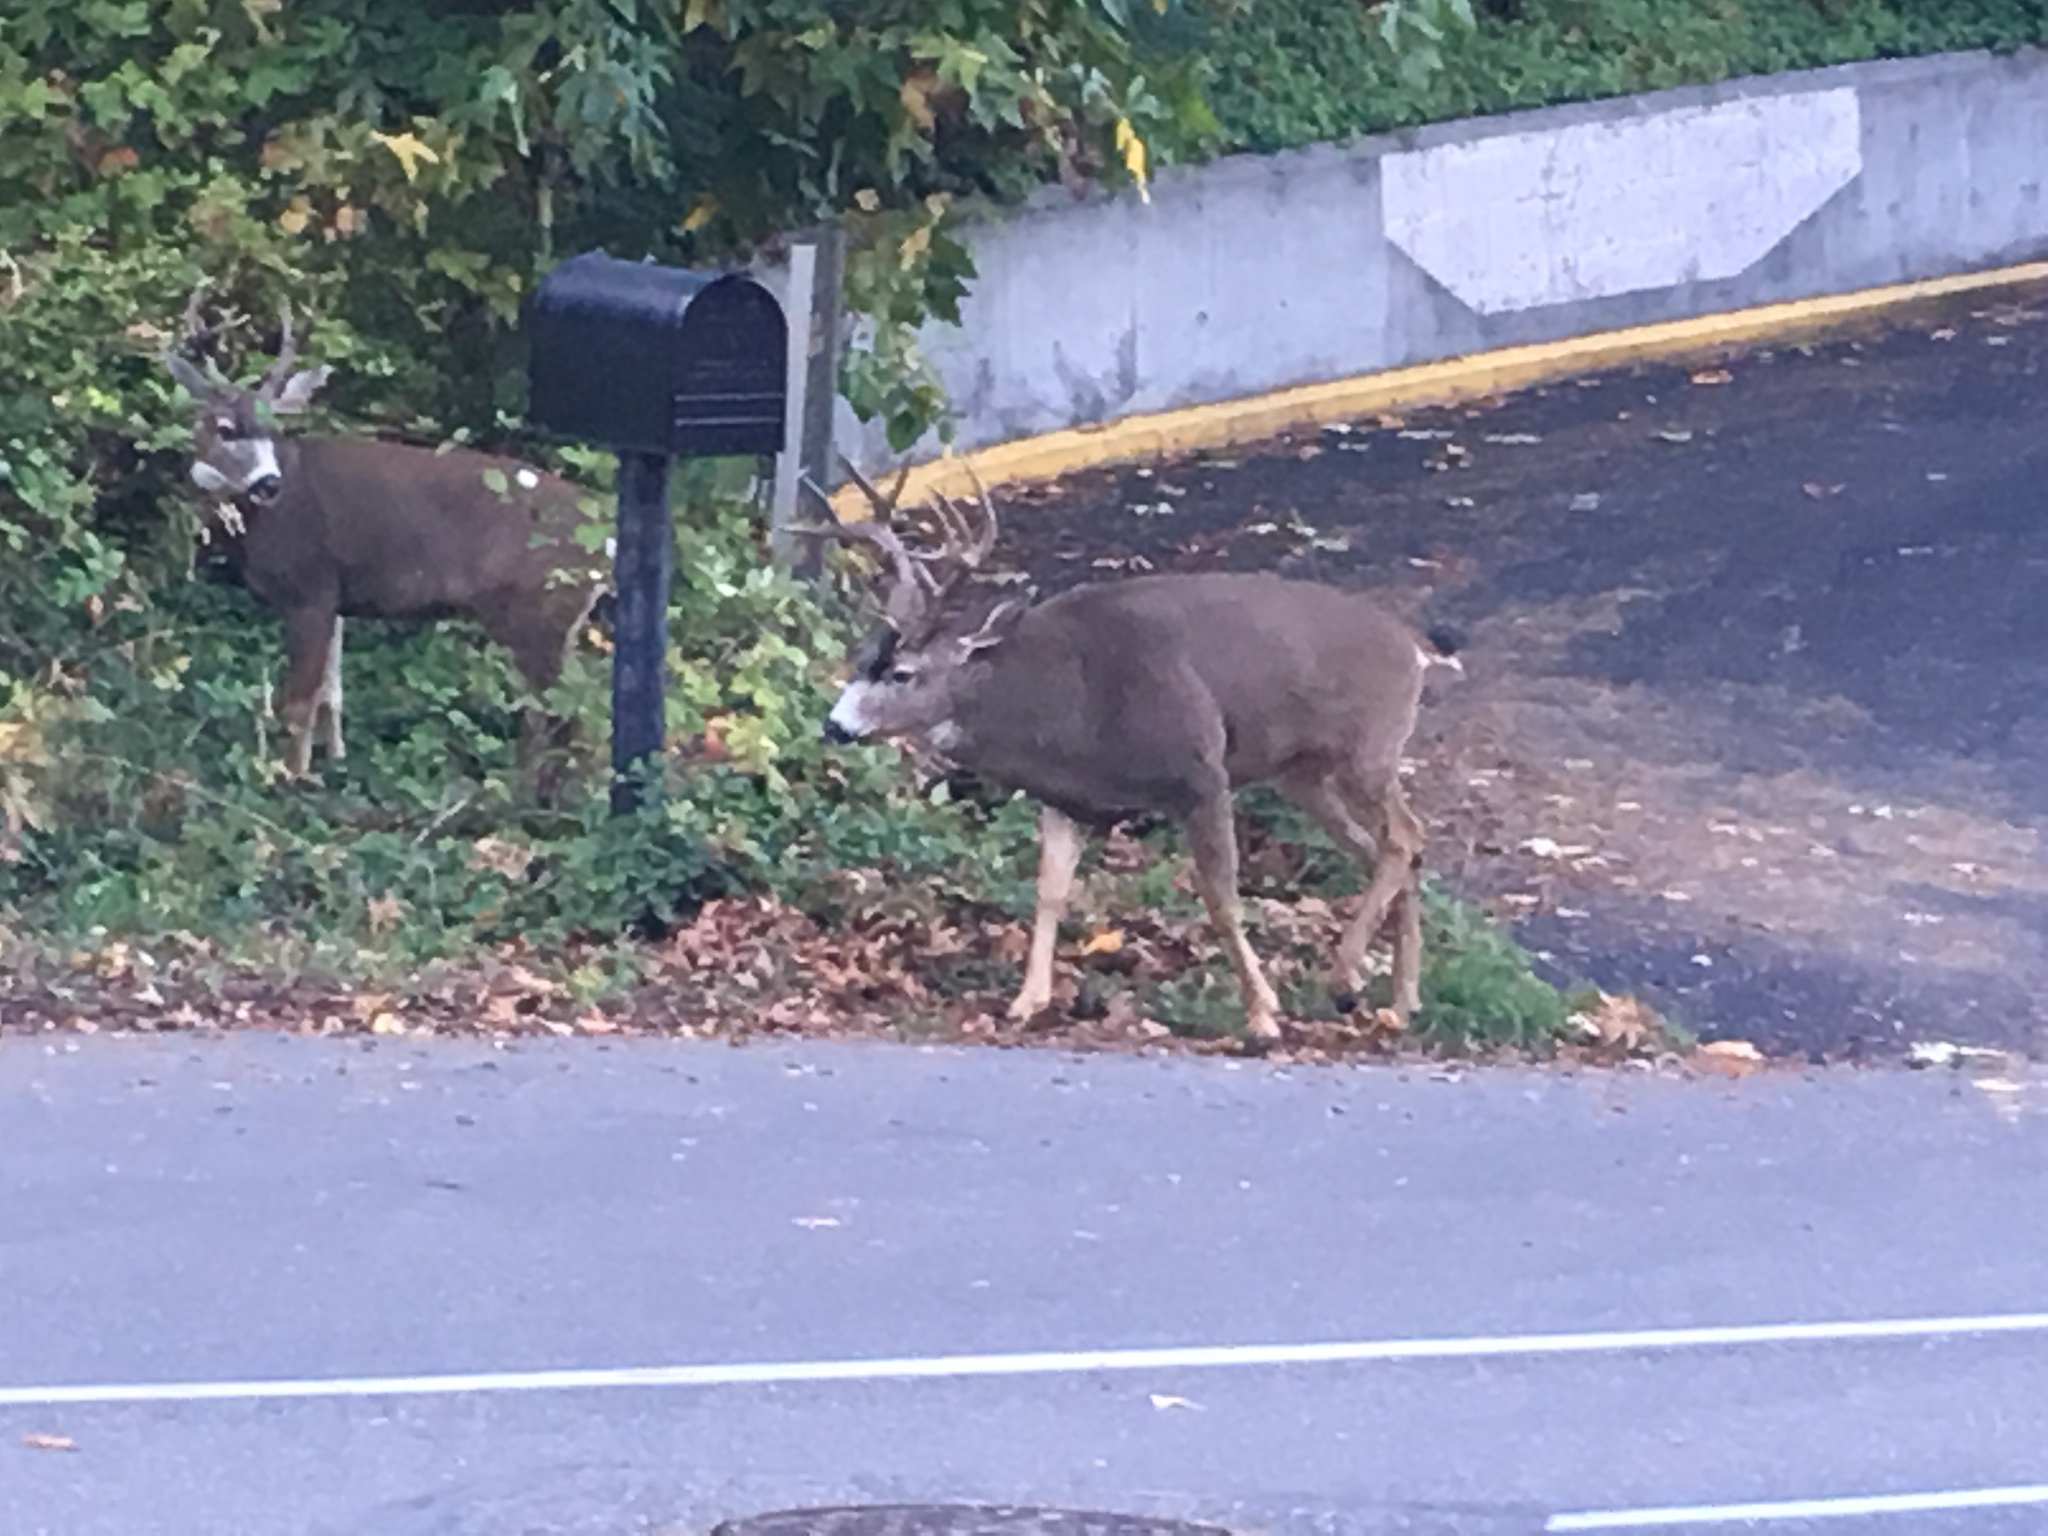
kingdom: Animalia
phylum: Chordata
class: Mammalia
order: Artiodactyla
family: Cervidae
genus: Odocoileus
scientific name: Odocoileus hemionus
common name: Mule deer
